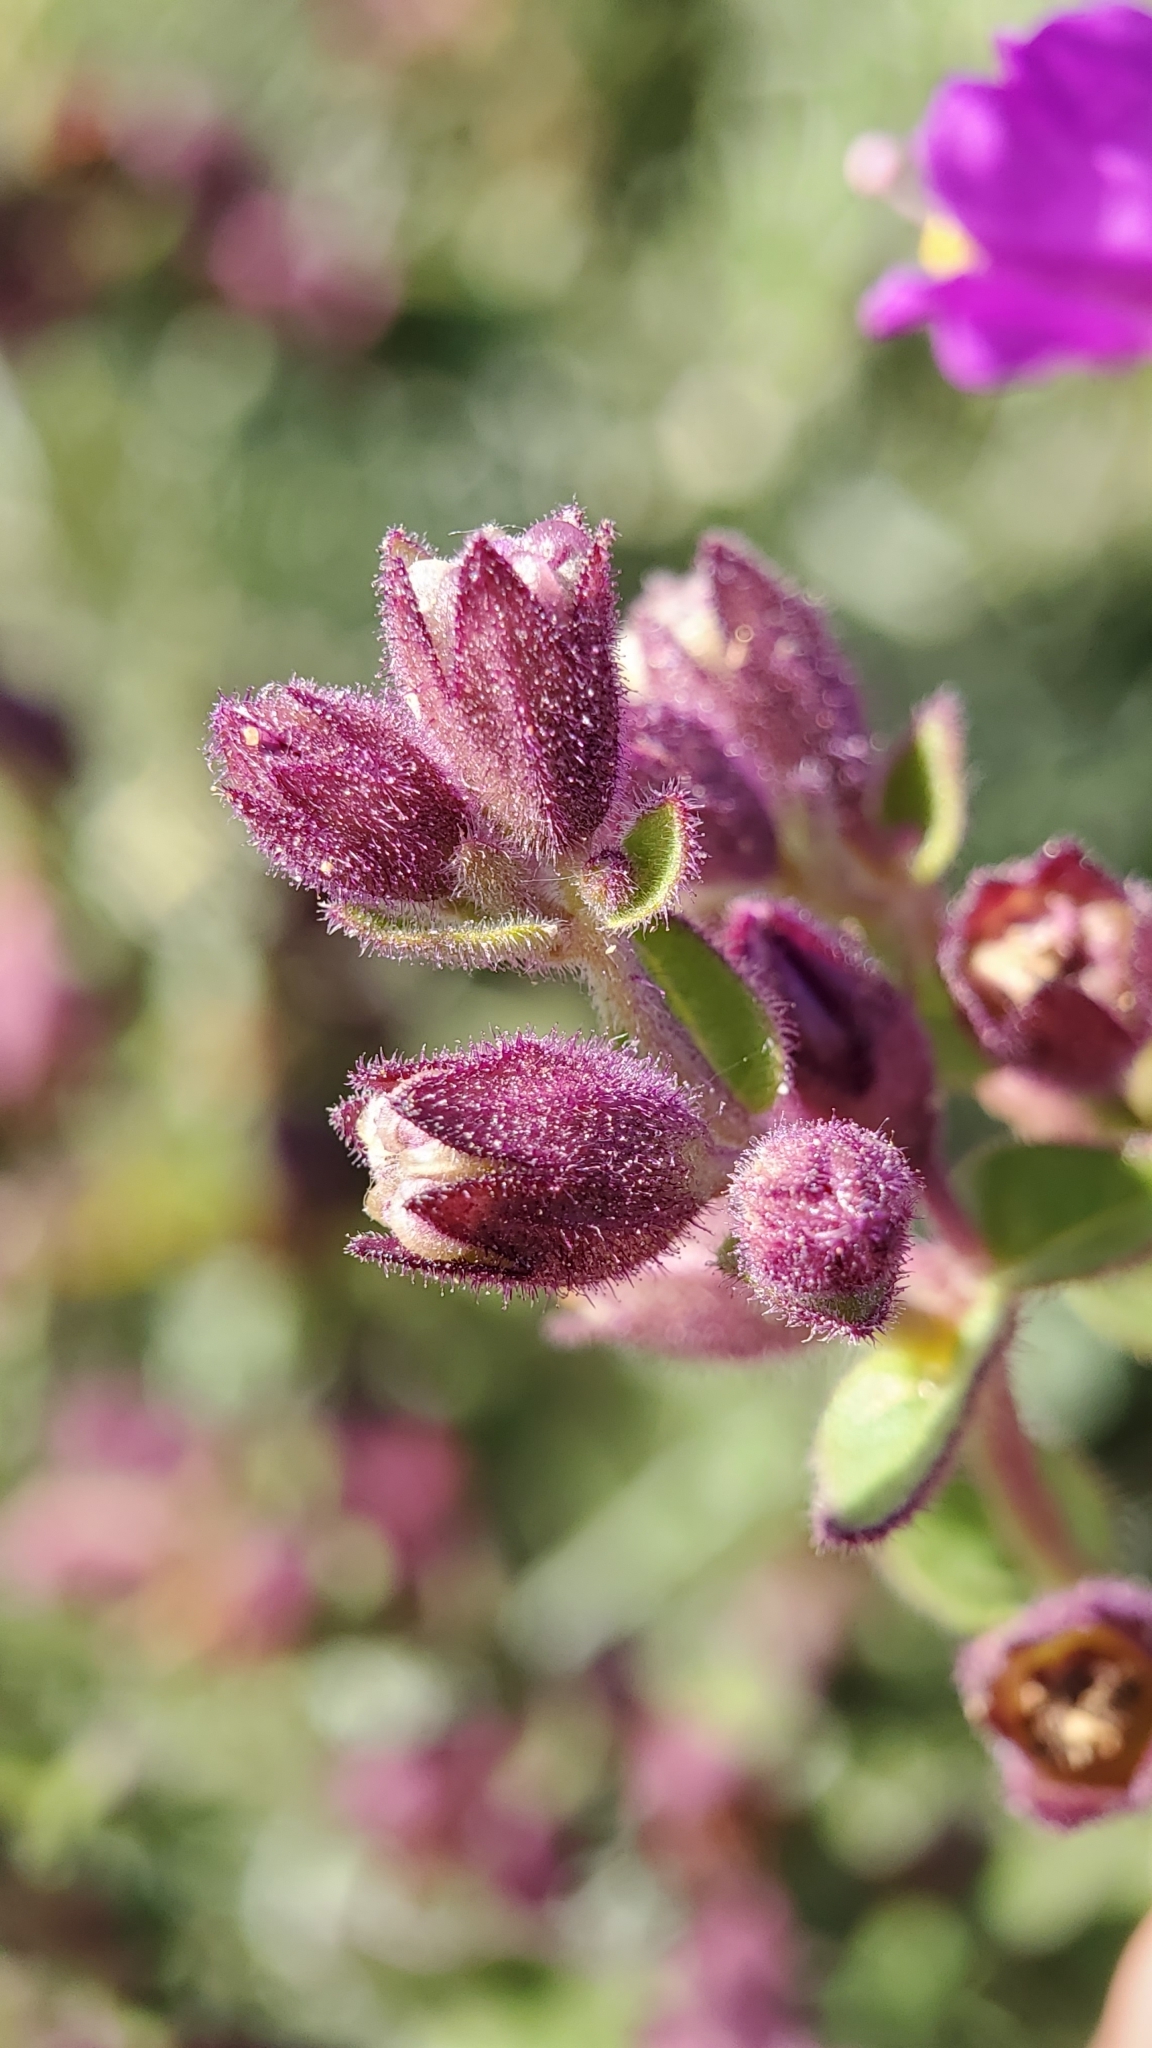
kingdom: Plantae
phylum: Tracheophyta
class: Magnoliopsida
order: Caryophyllales
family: Nyctaginaceae
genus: Mirabilis
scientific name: Mirabilis laevis
